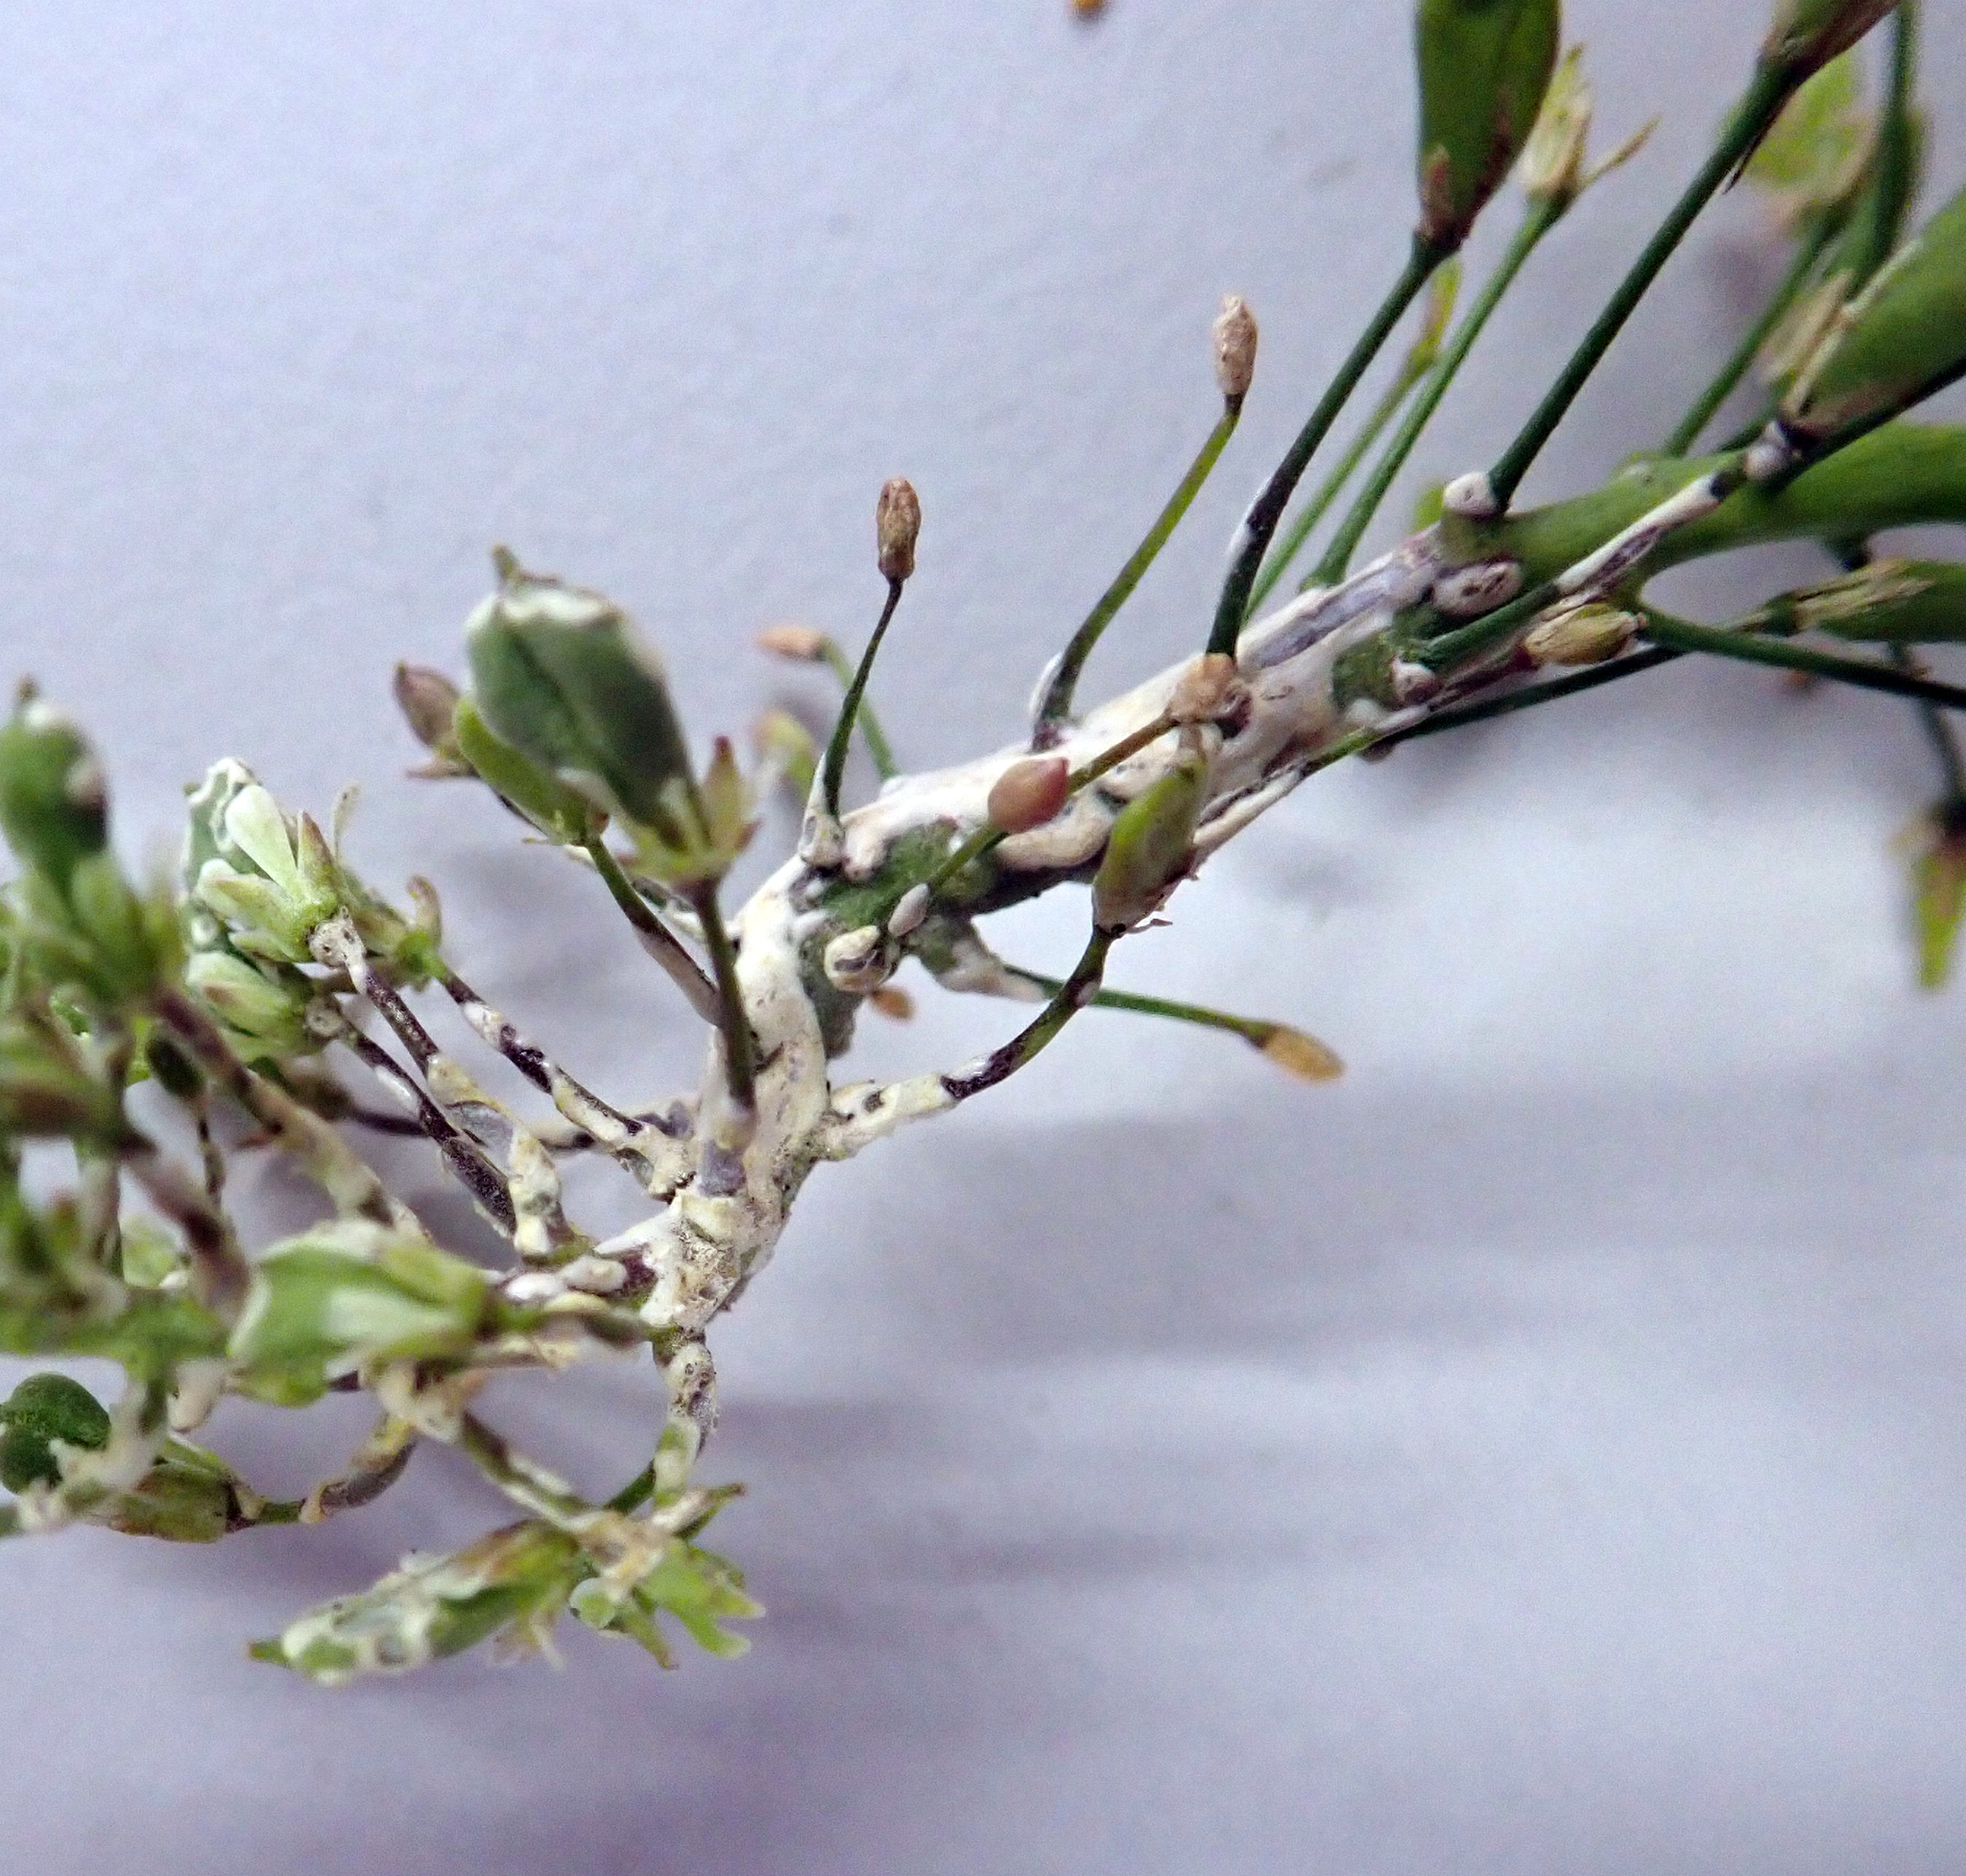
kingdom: Chromista
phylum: Oomycota
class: Peronosporea
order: Albuginales
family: Albuginaceae
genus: Albugo
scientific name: Albugo candida
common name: Crucifer white blister
